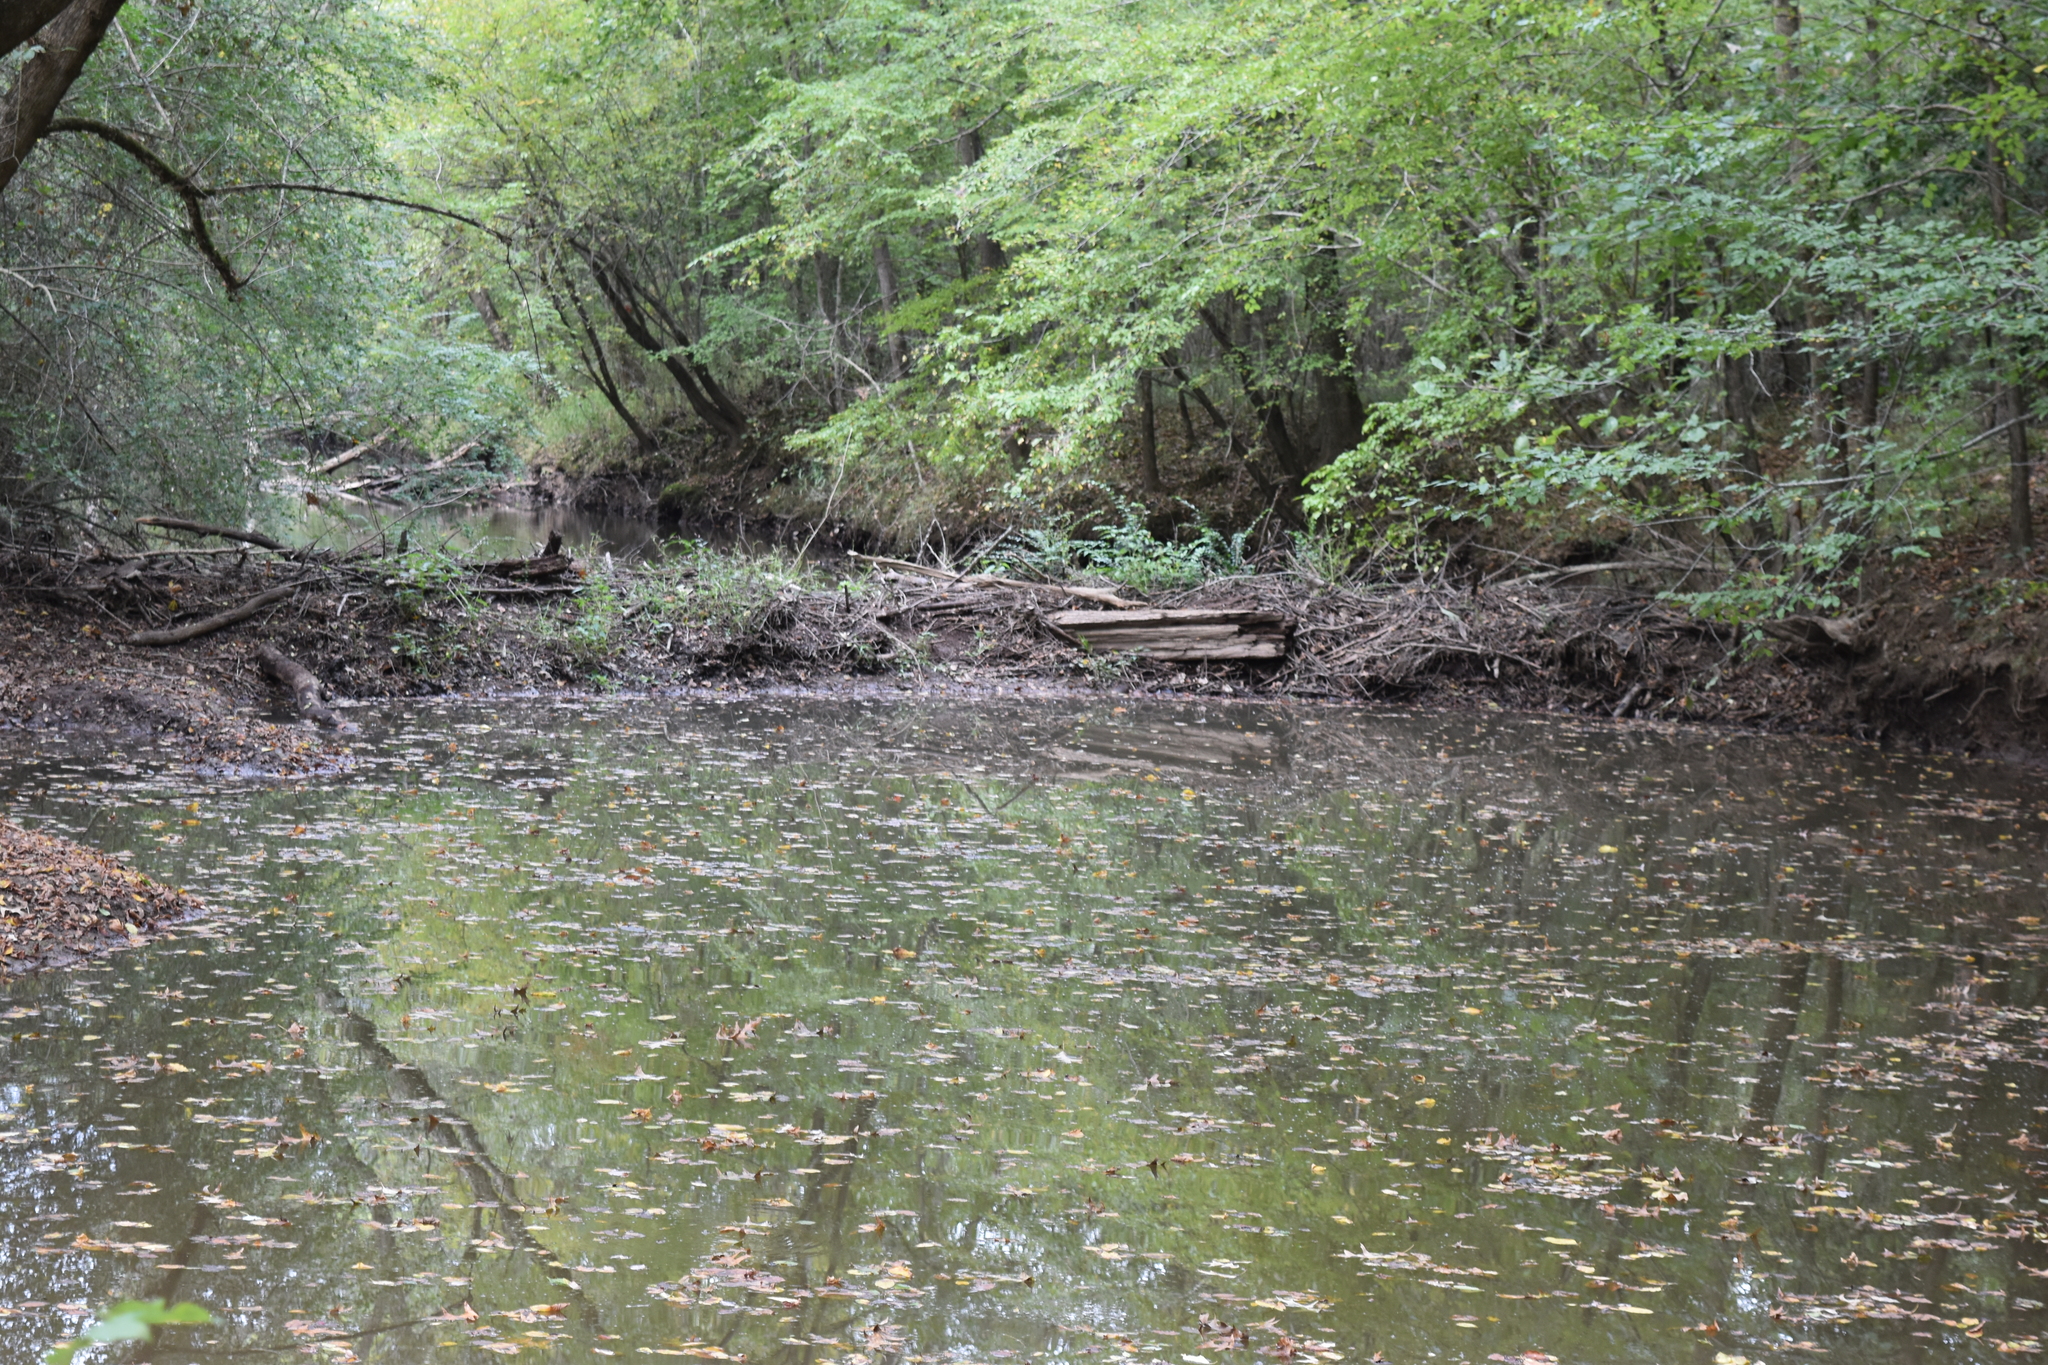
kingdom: Animalia
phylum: Chordata
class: Mammalia
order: Rodentia
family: Castoridae
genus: Castor
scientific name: Castor canadensis
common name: American beaver
